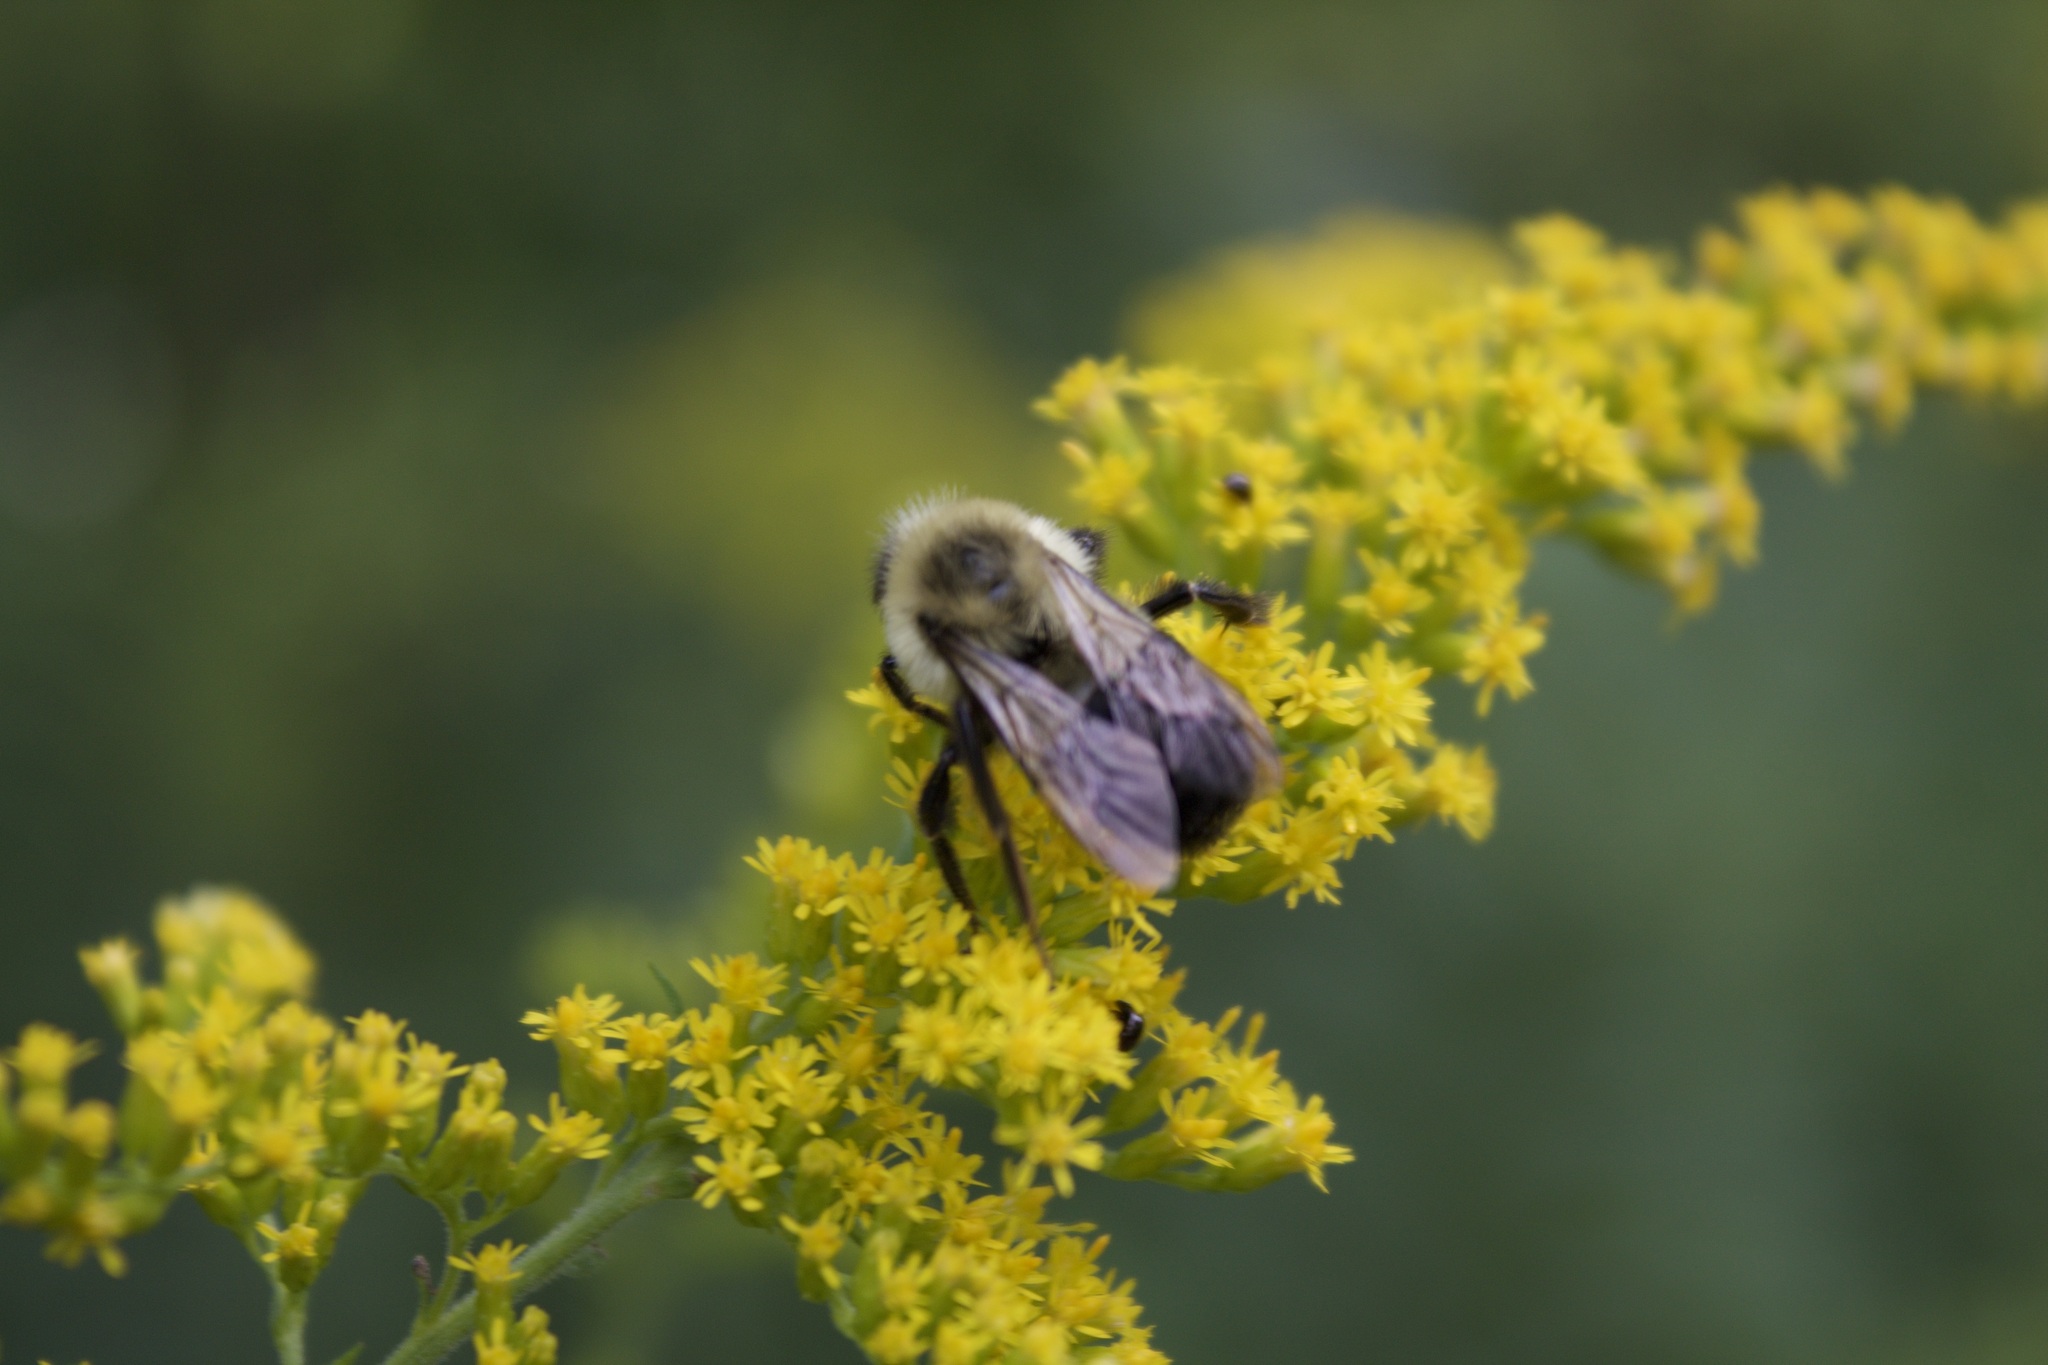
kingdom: Animalia
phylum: Arthropoda
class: Insecta
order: Hymenoptera
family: Apidae
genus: Bombus
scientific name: Bombus impatiens
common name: Common eastern bumble bee
